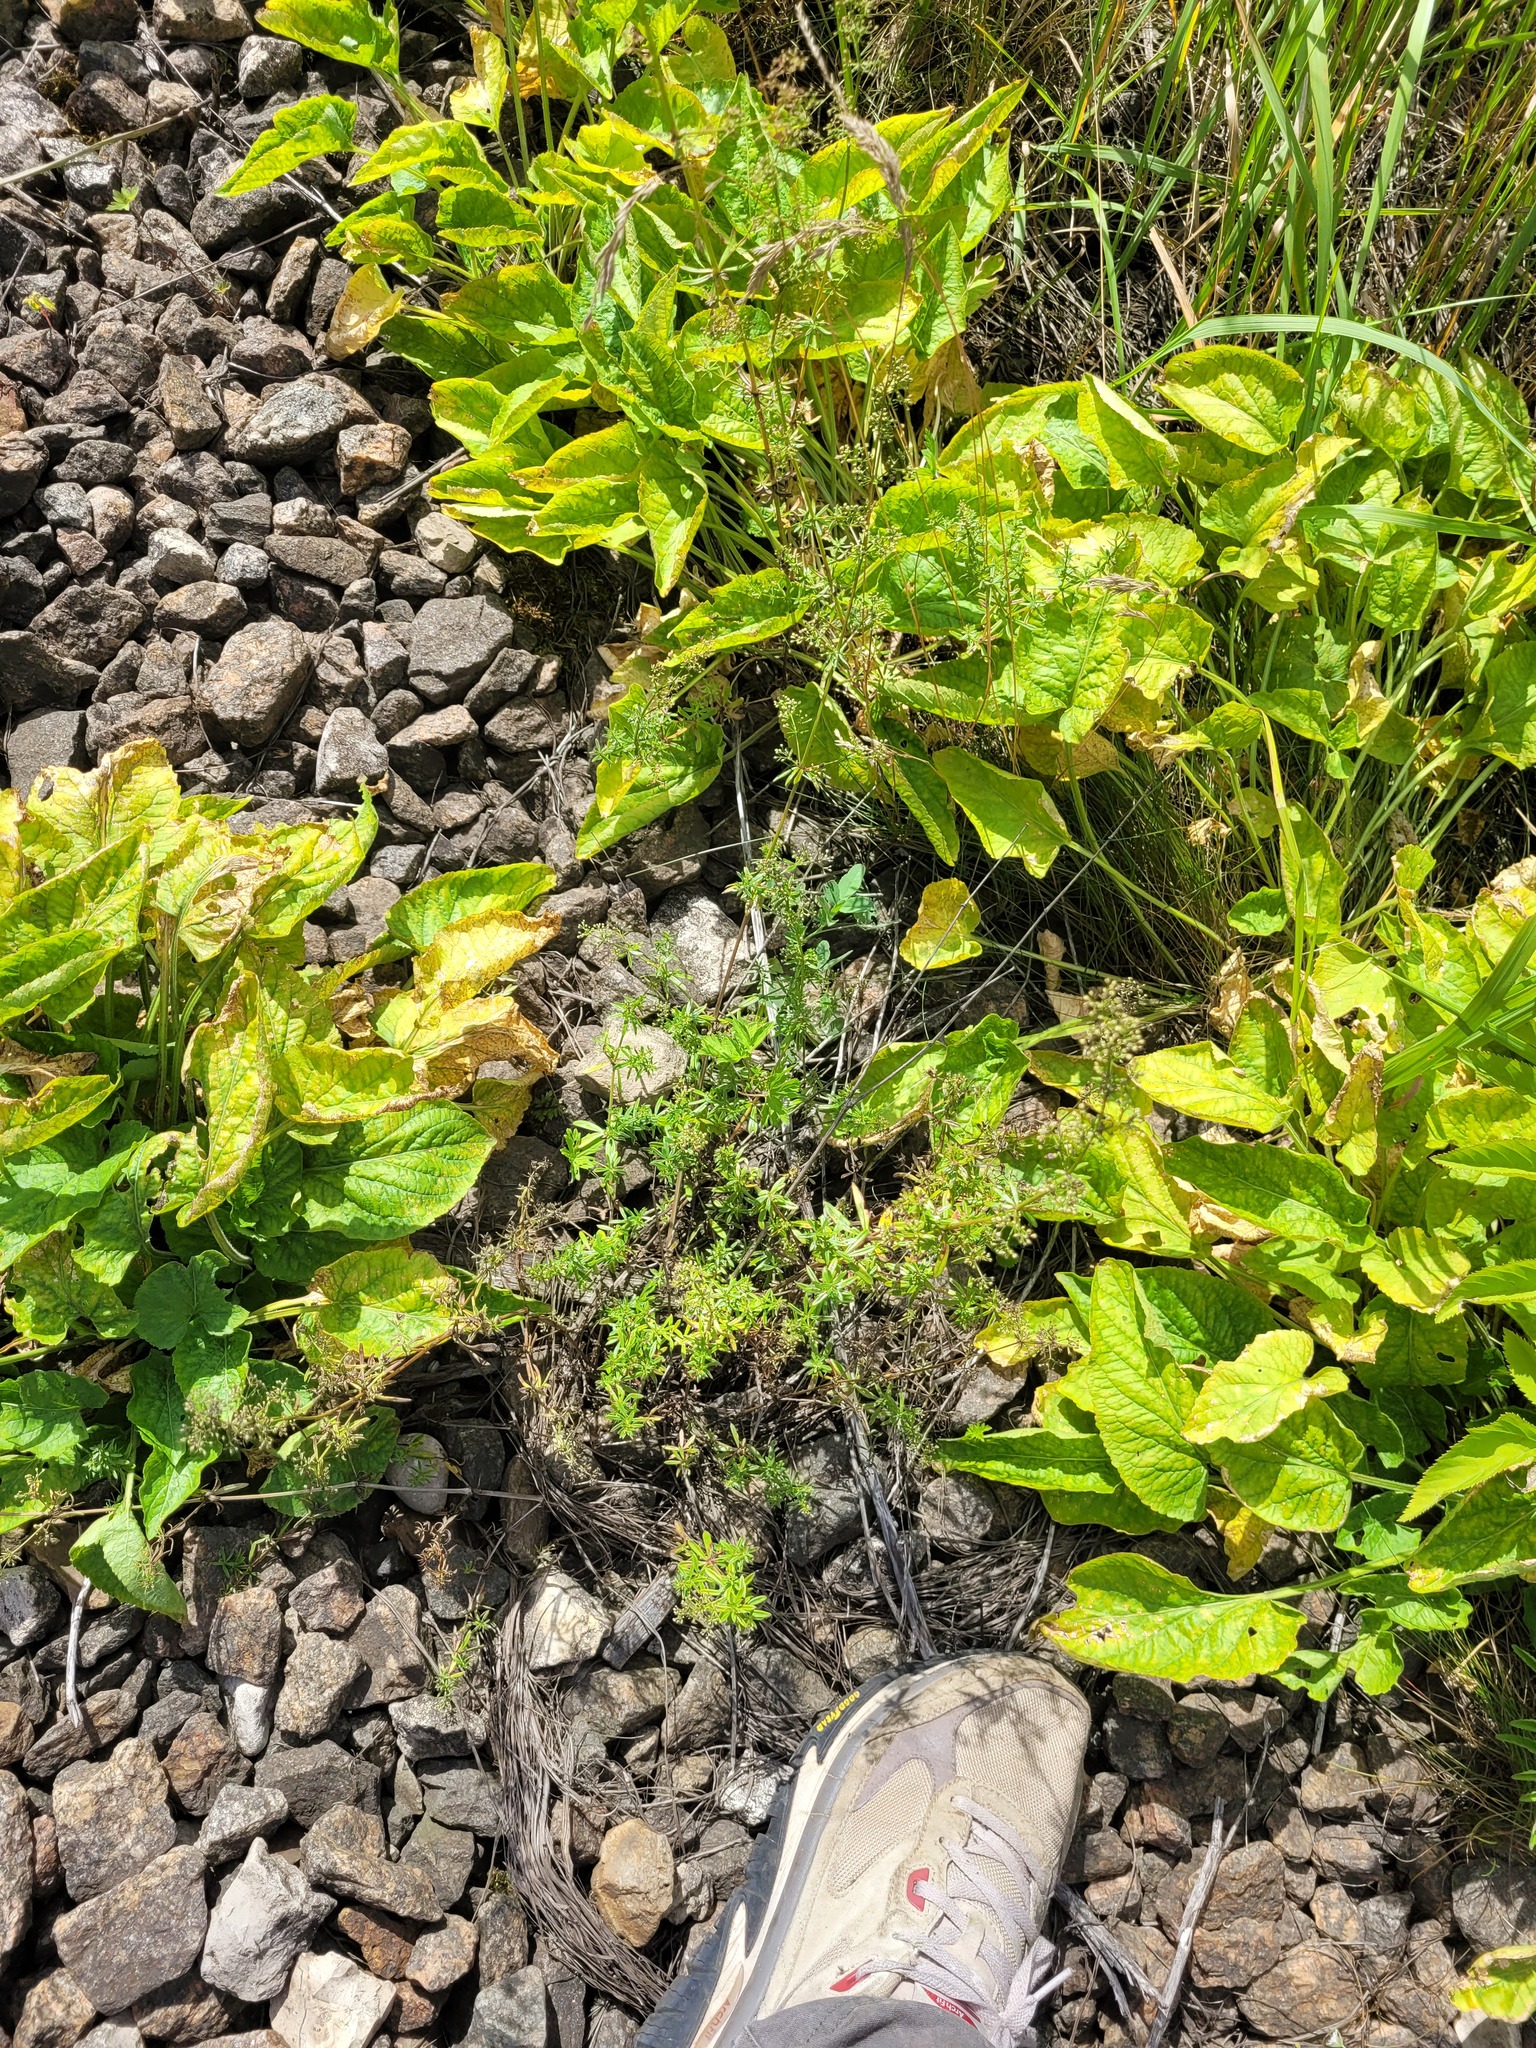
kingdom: Plantae
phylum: Tracheophyta
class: Magnoliopsida
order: Gentianales
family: Rubiaceae
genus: Galium
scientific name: Galium mollugo
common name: Hedge bedstraw
